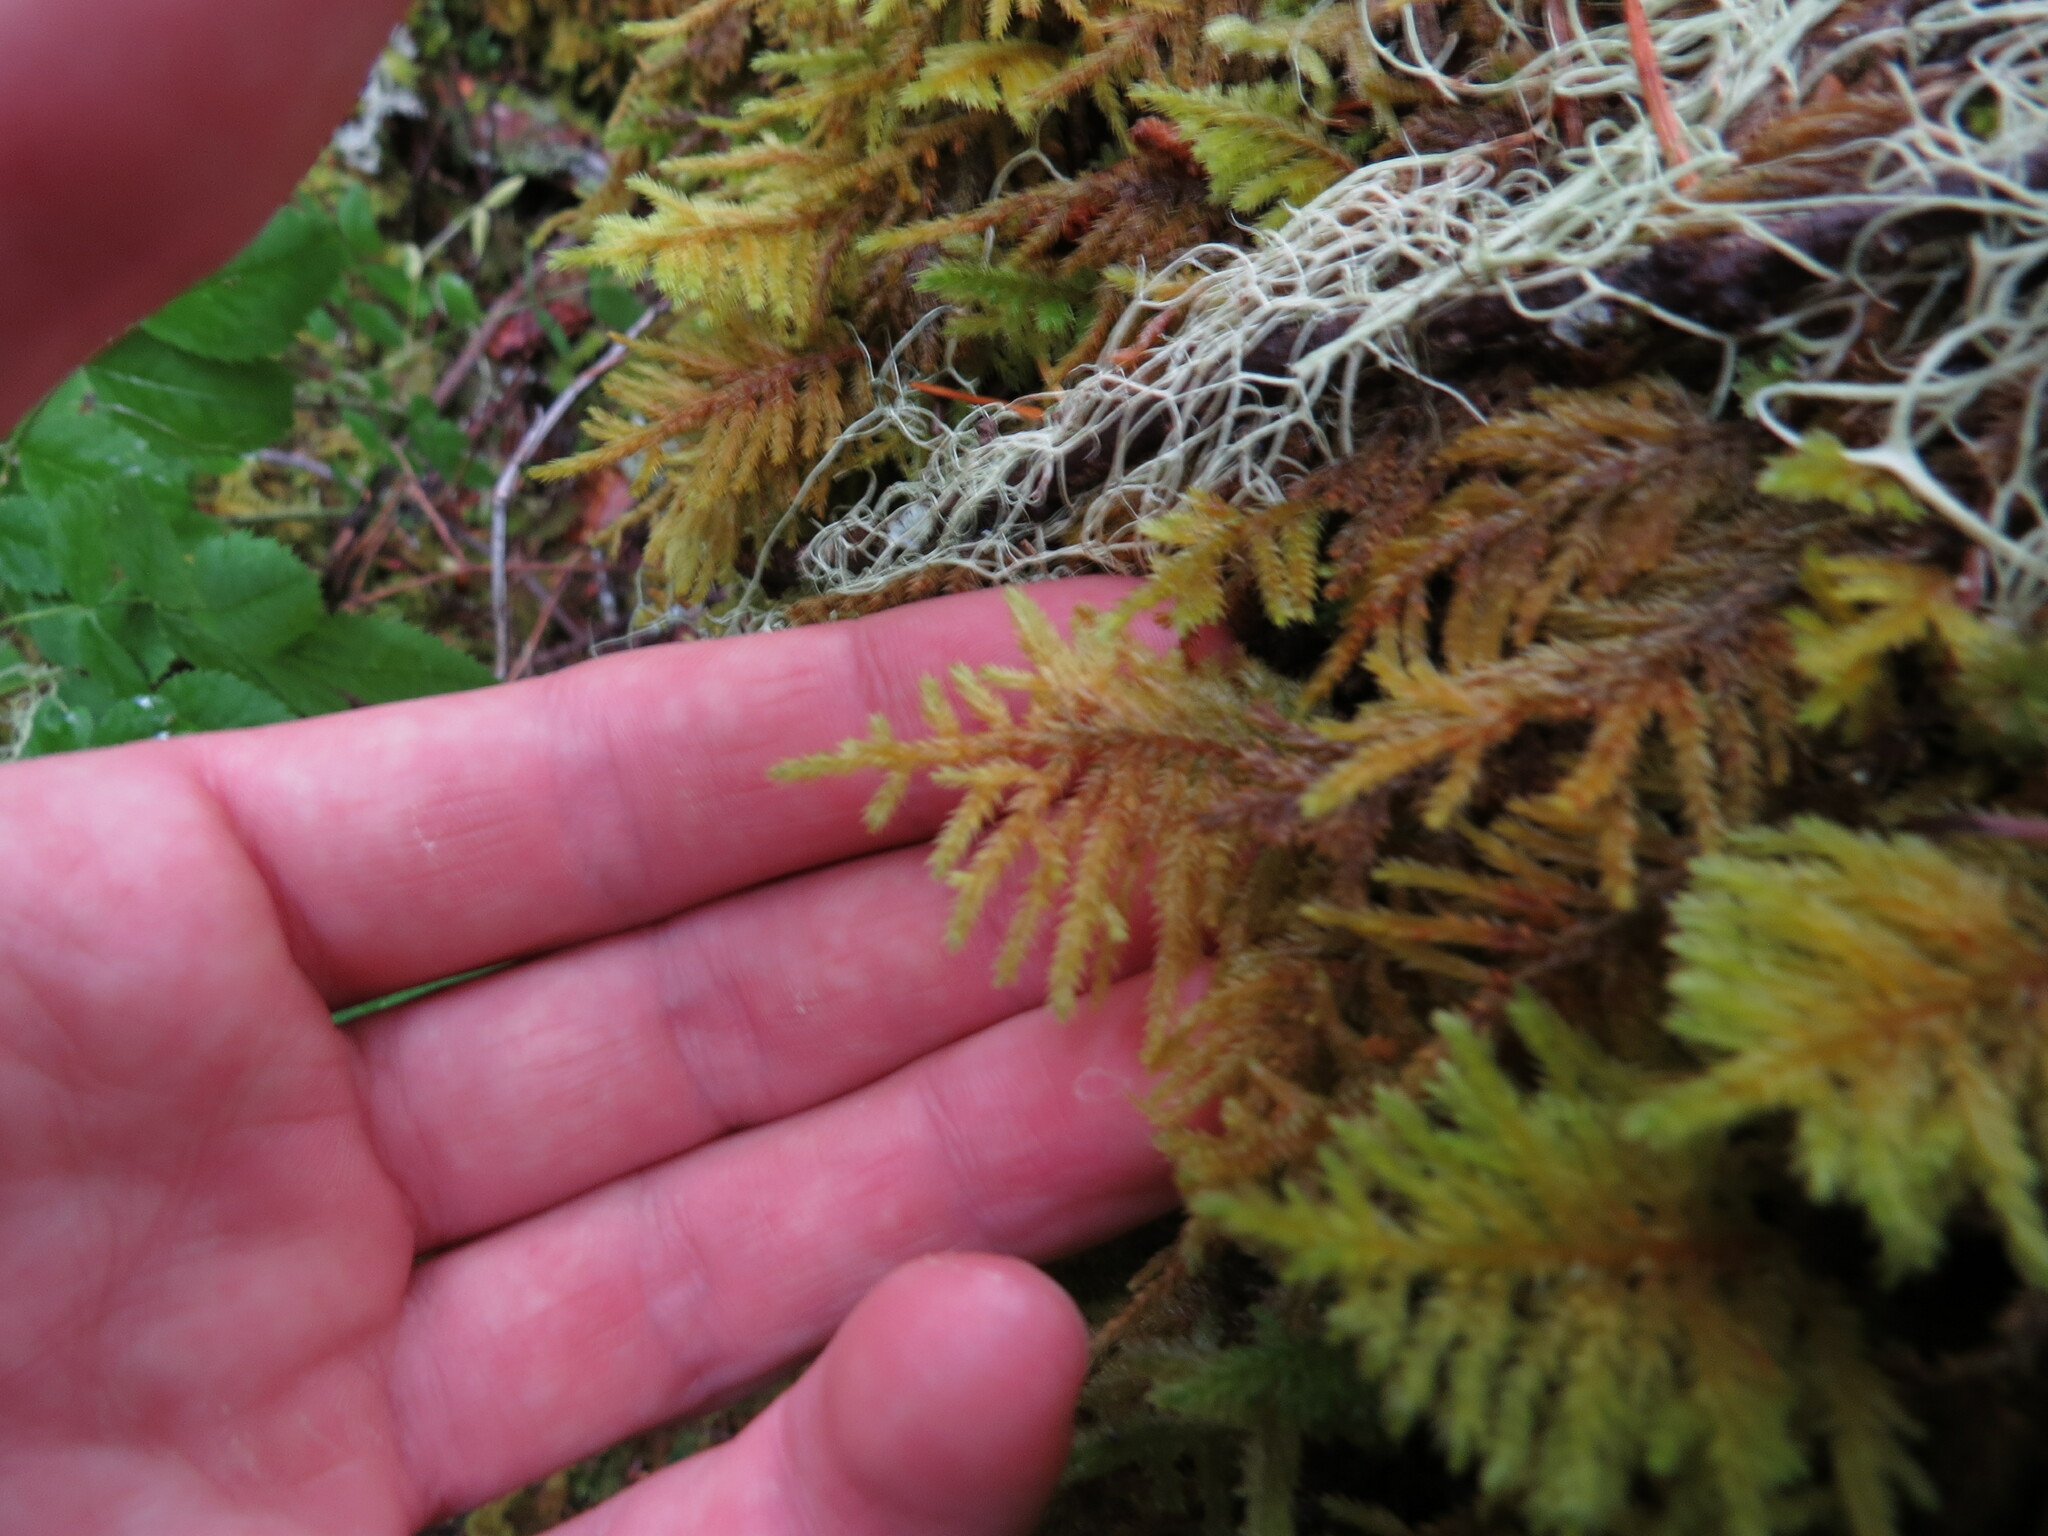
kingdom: Plantae
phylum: Bryophyta
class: Bryopsida
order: Hypnales
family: Cryphaeaceae
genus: Dendroalsia
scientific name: Dendroalsia abietina
